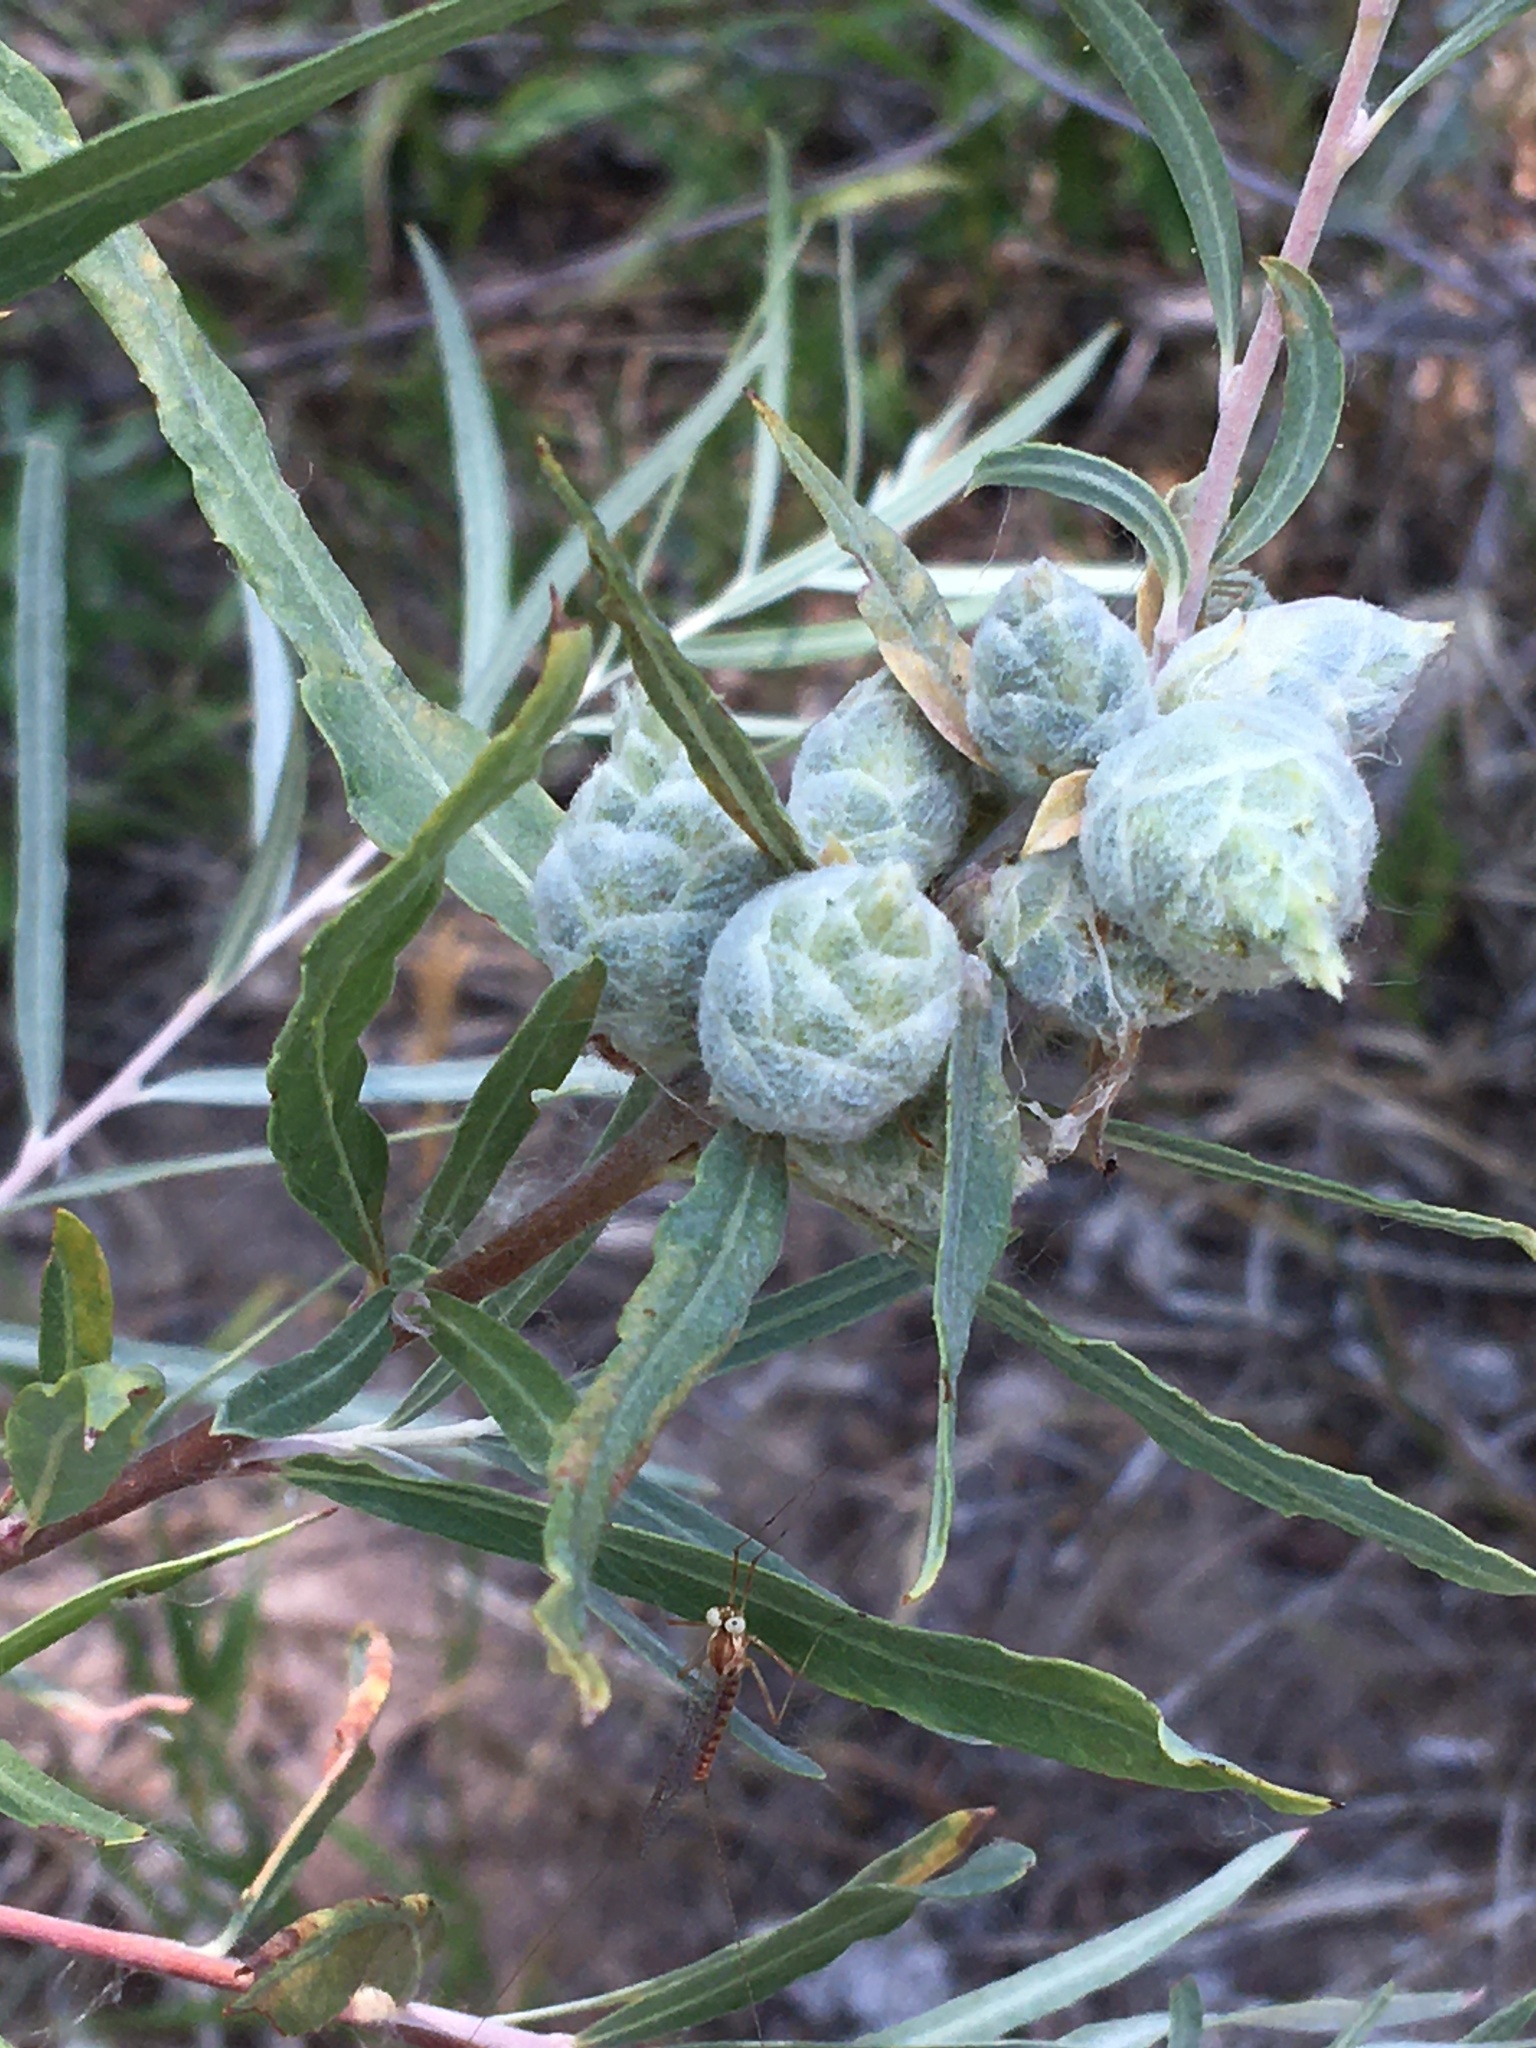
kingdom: Animalia
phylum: Arthropoda
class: Insecta
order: Diptera
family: Cecidomyiidae
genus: Rabdophaga
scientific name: Rabdophaga strobiloides
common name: Willow pinecone gall midge
